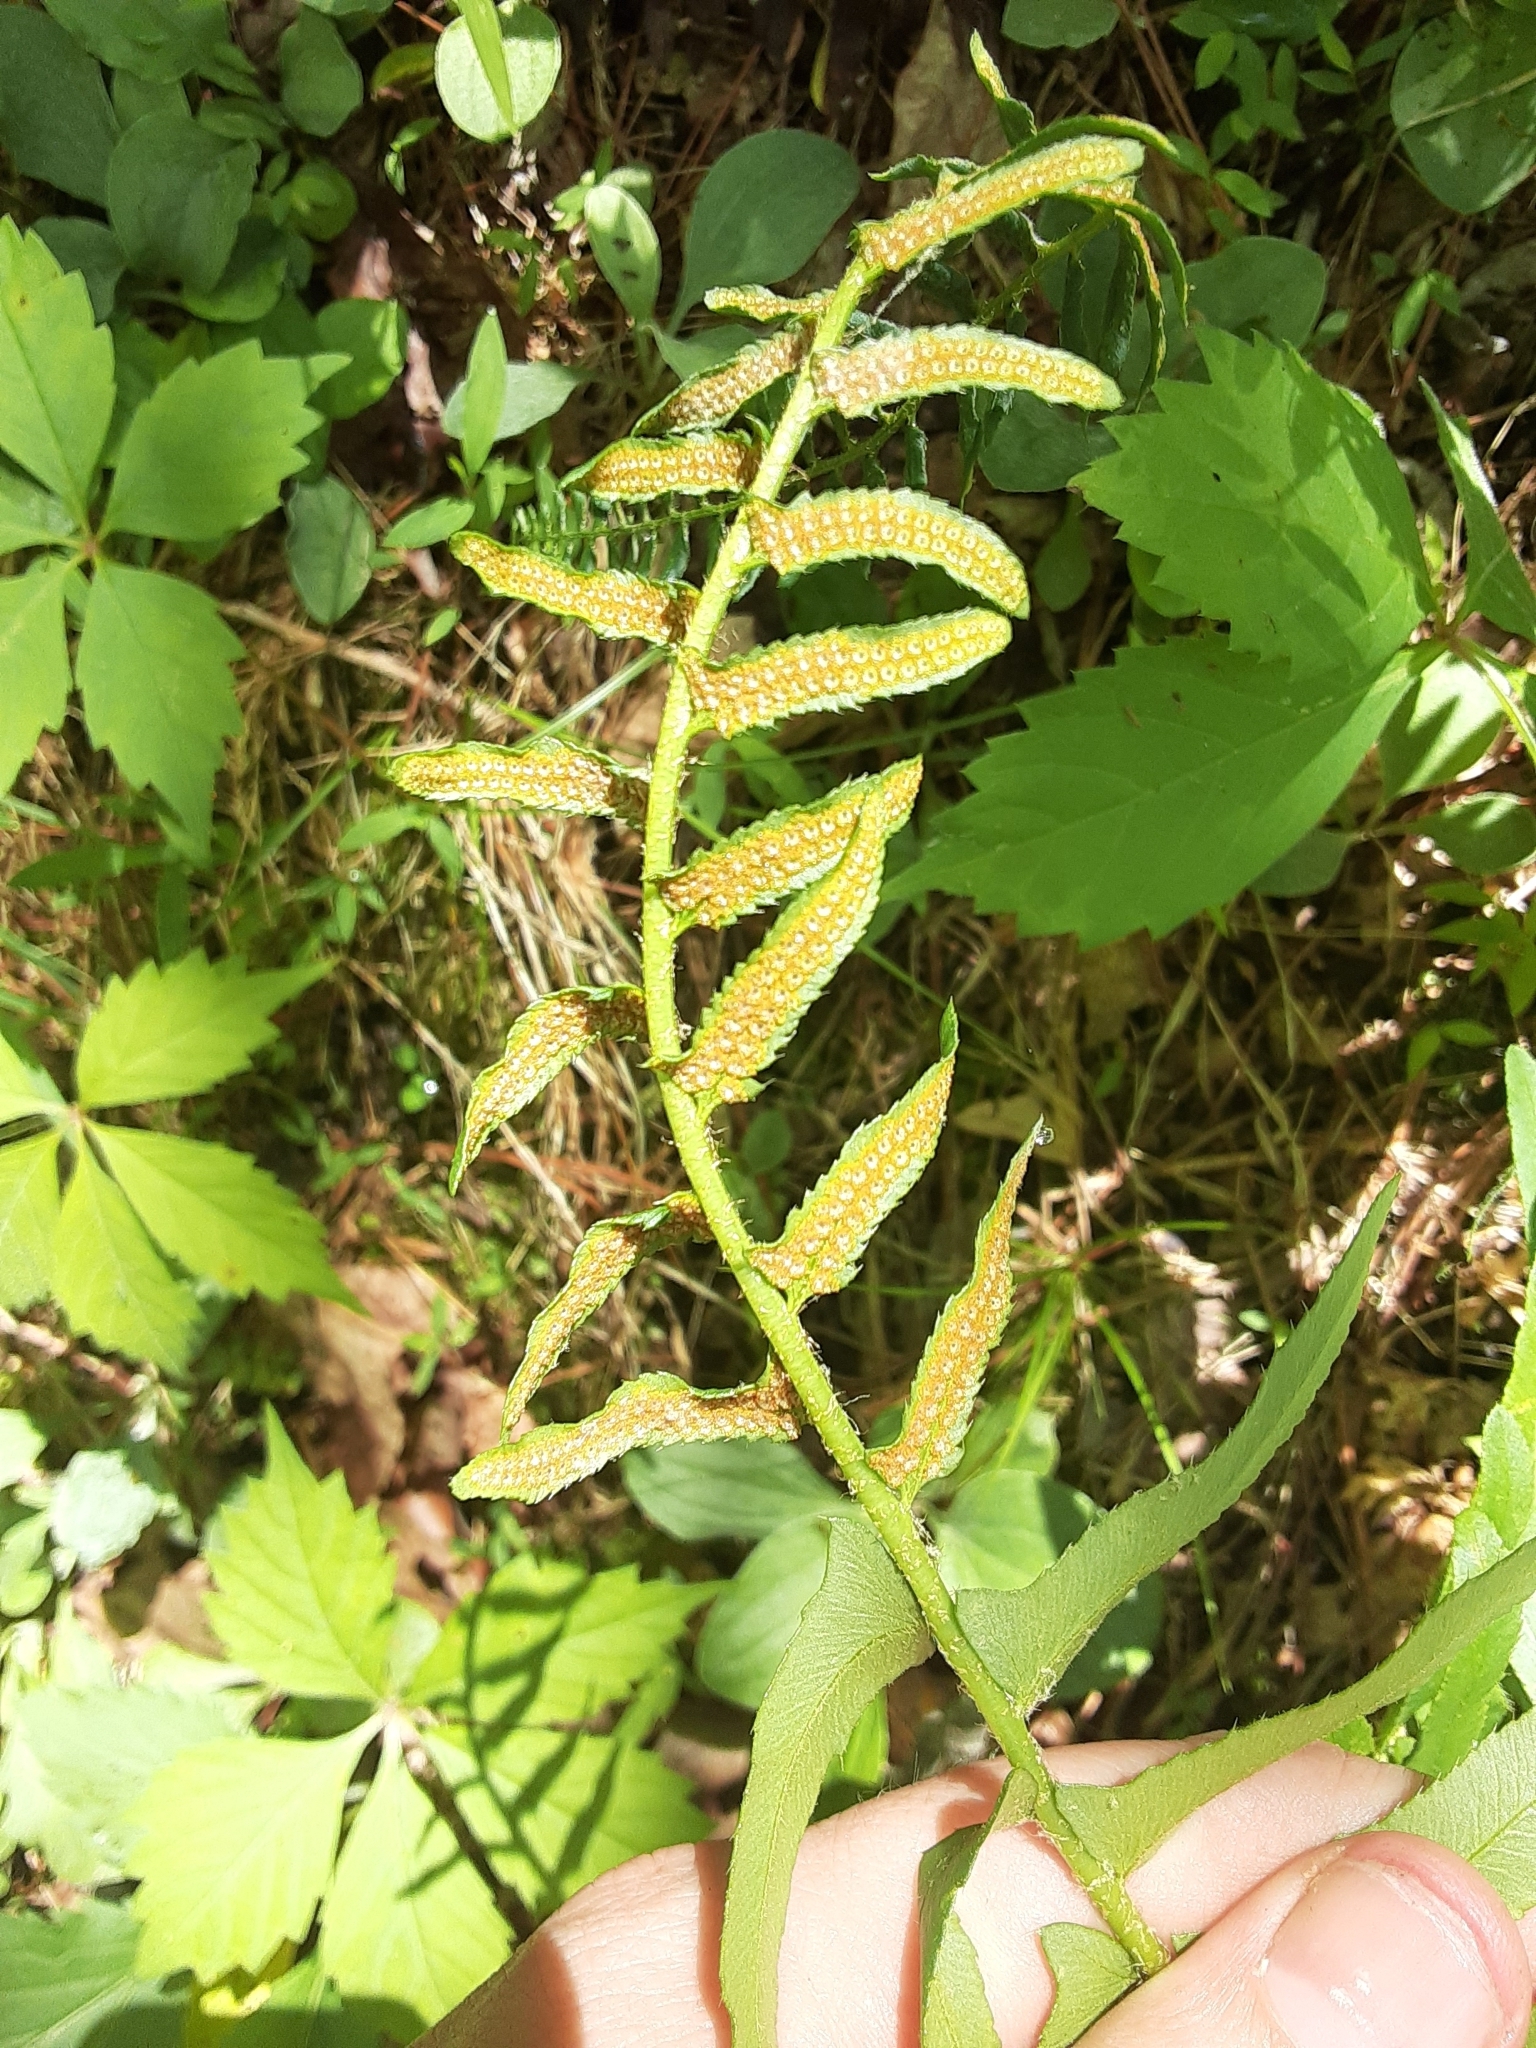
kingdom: Plantae
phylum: Tracheophyta
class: Polypodiopsida
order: Polypodiales
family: Dryopteridaceae
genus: Polystichum
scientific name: Polystichum acrostichoides
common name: Christmas fern
